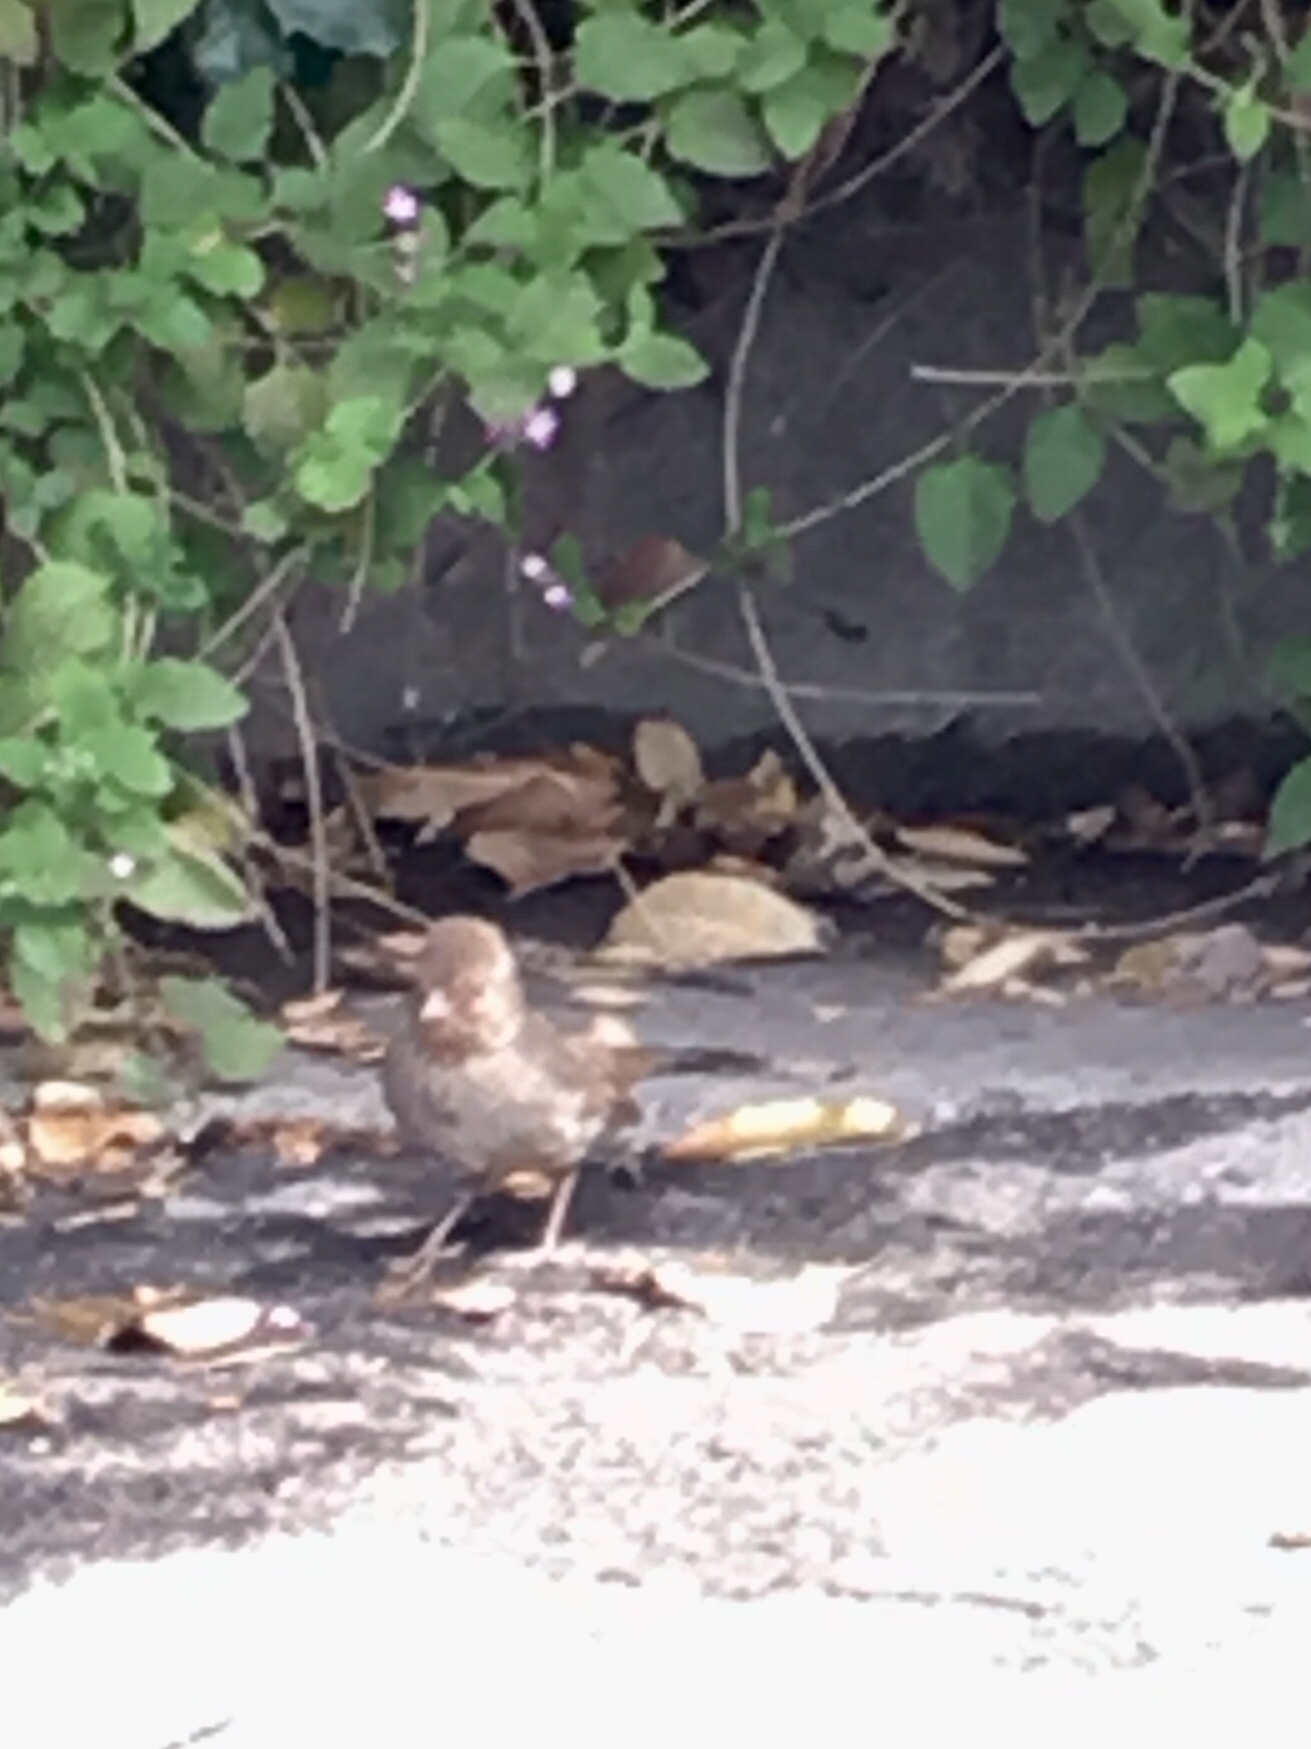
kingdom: Animalia
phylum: Chordata
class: Aves
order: Passeriformes
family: Passerellidae
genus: Melozone
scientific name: Melozone crissalis
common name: California towhee
